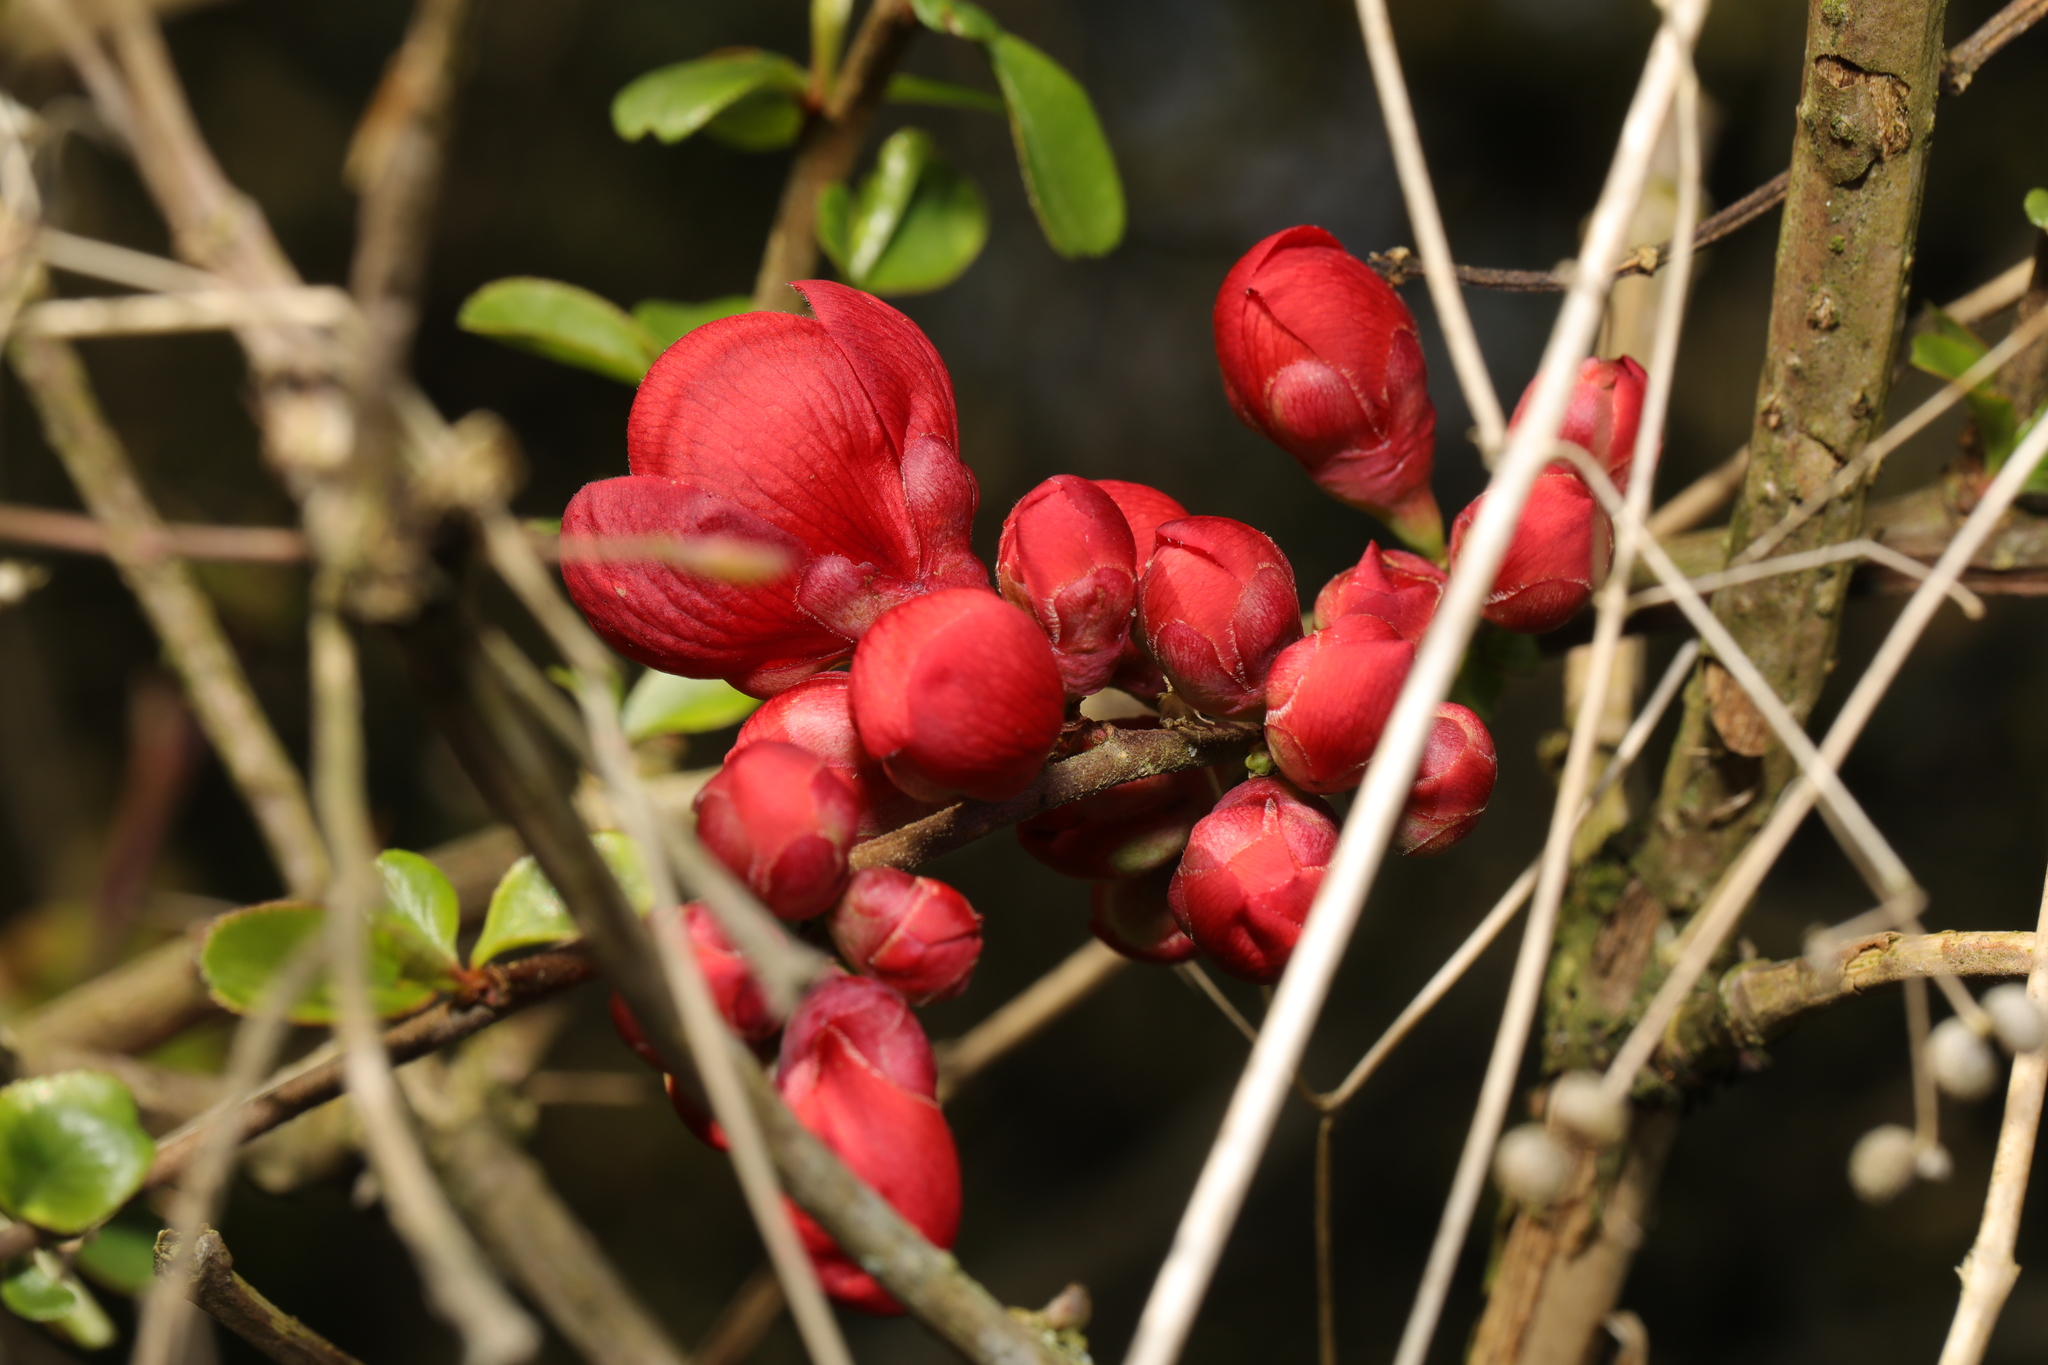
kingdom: Plantae
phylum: Tracheophyta
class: Magnoliopsida
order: Rosales
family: Rosaceae
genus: Chaenomeles
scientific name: Chaenomeles speciosa
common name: Japanese quince
